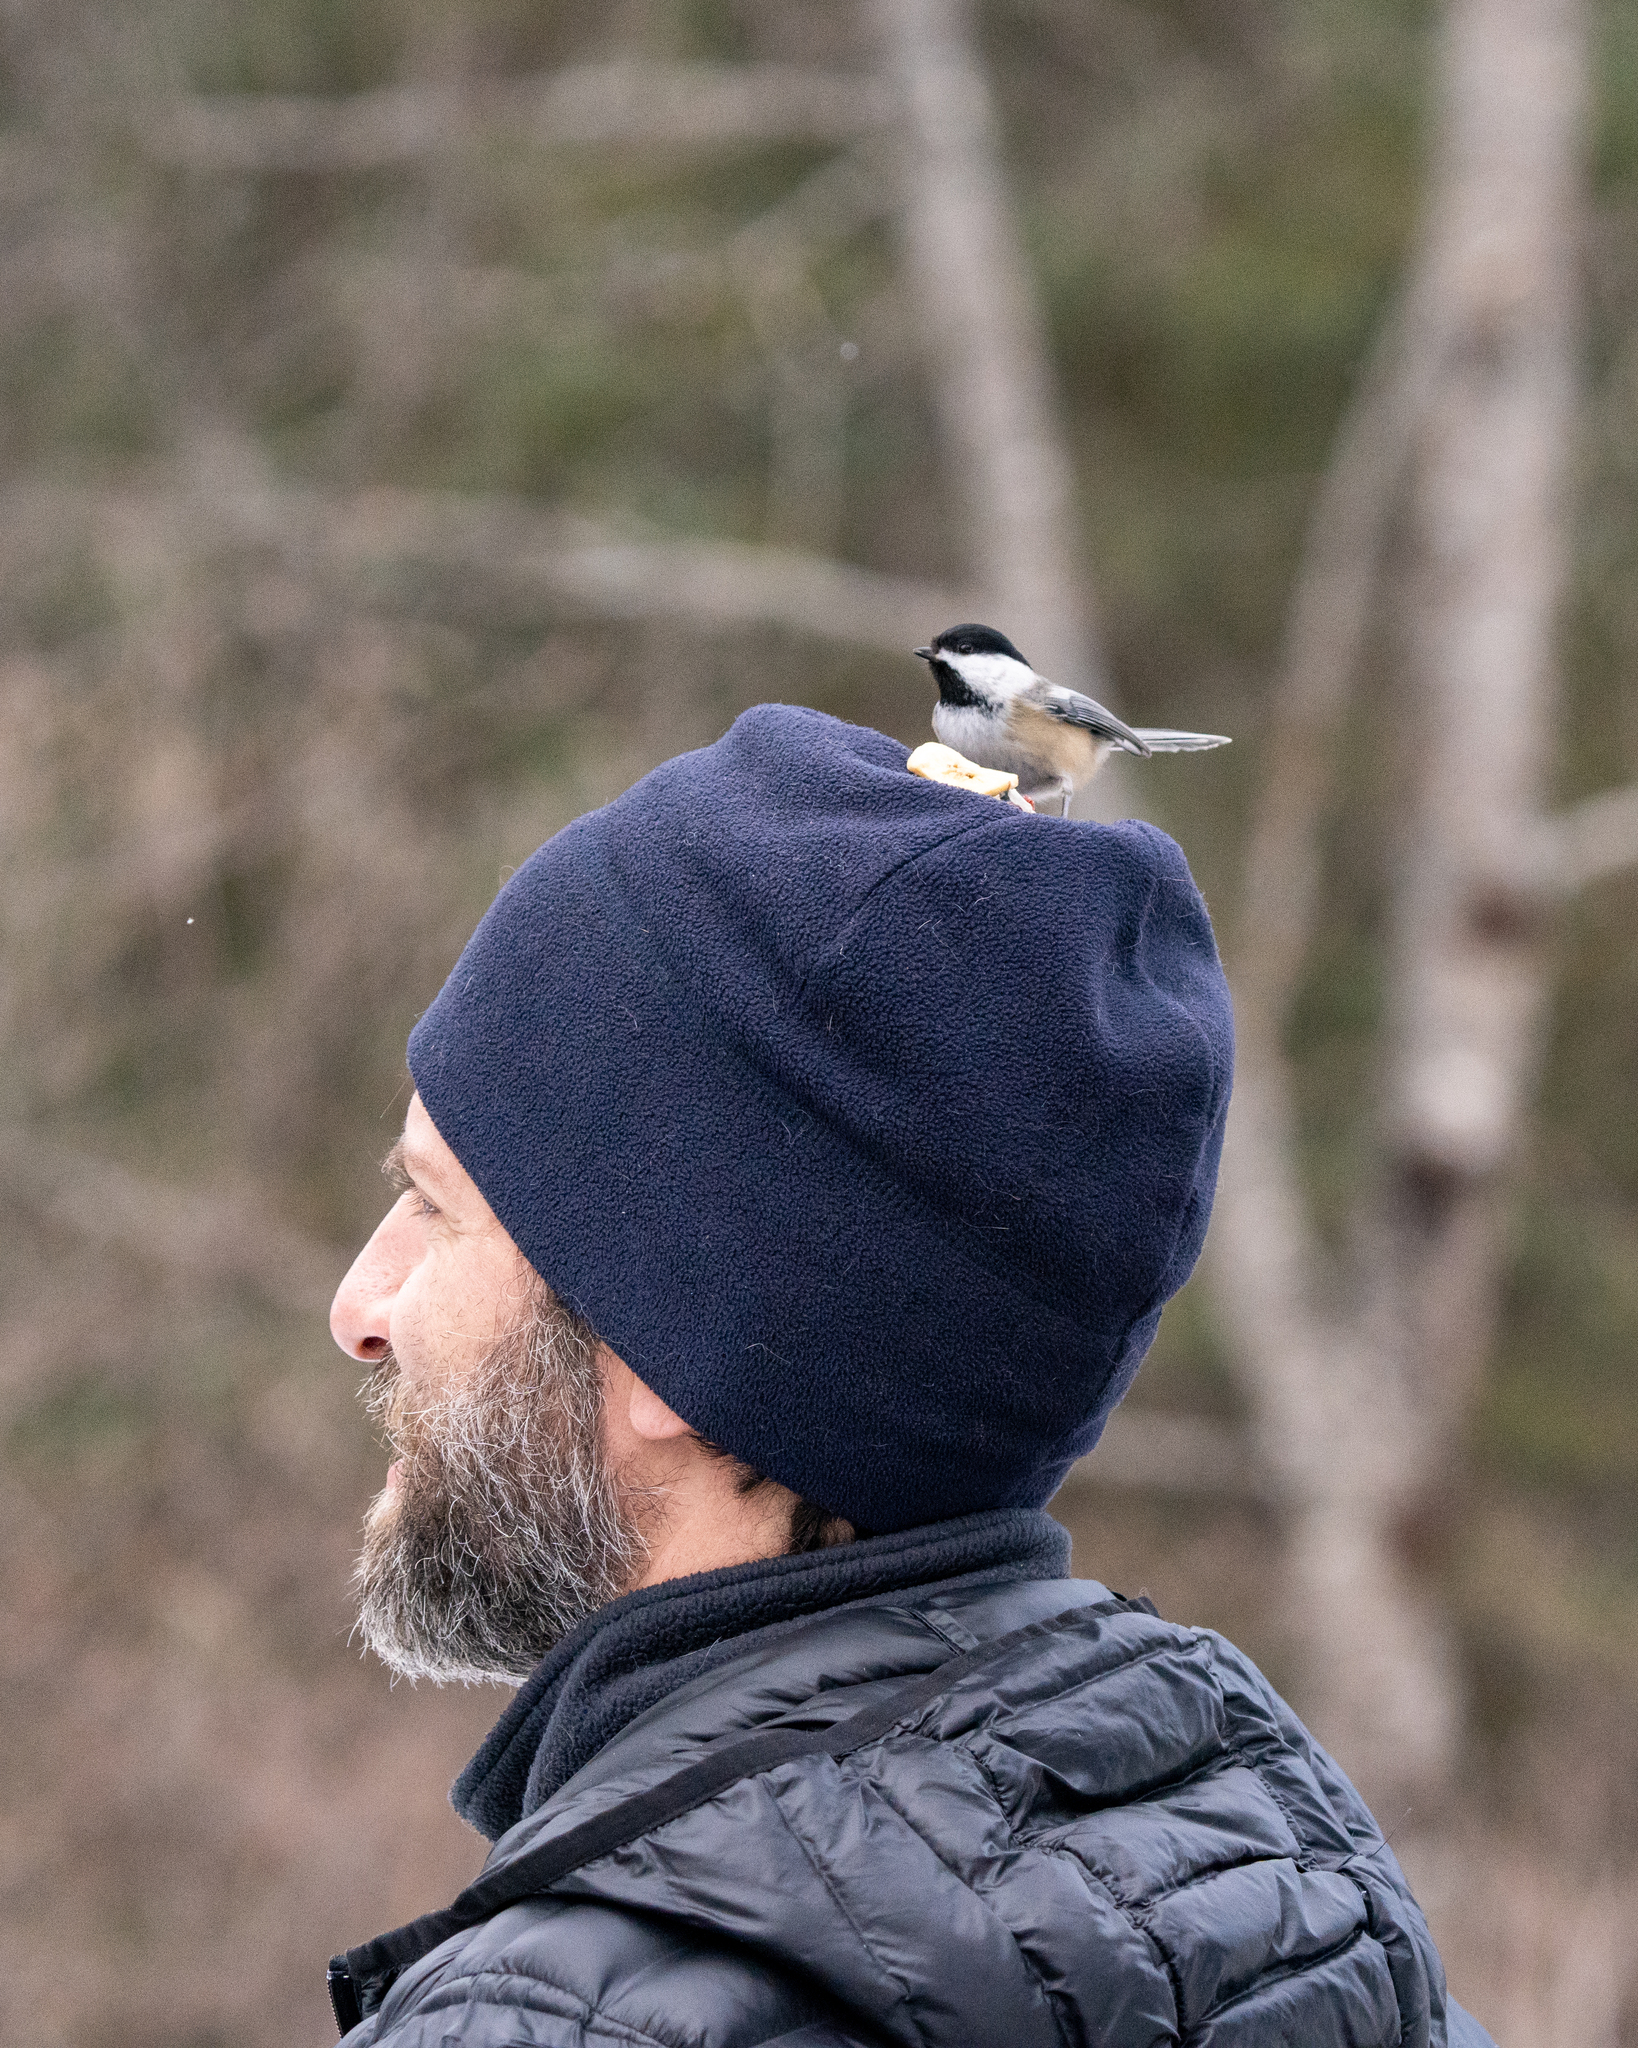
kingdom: Animalia
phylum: Chordata
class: Aves
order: Passeriformes
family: Paridae
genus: Poecile
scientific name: Poecile atricapillus
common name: Black-capped chickadee
